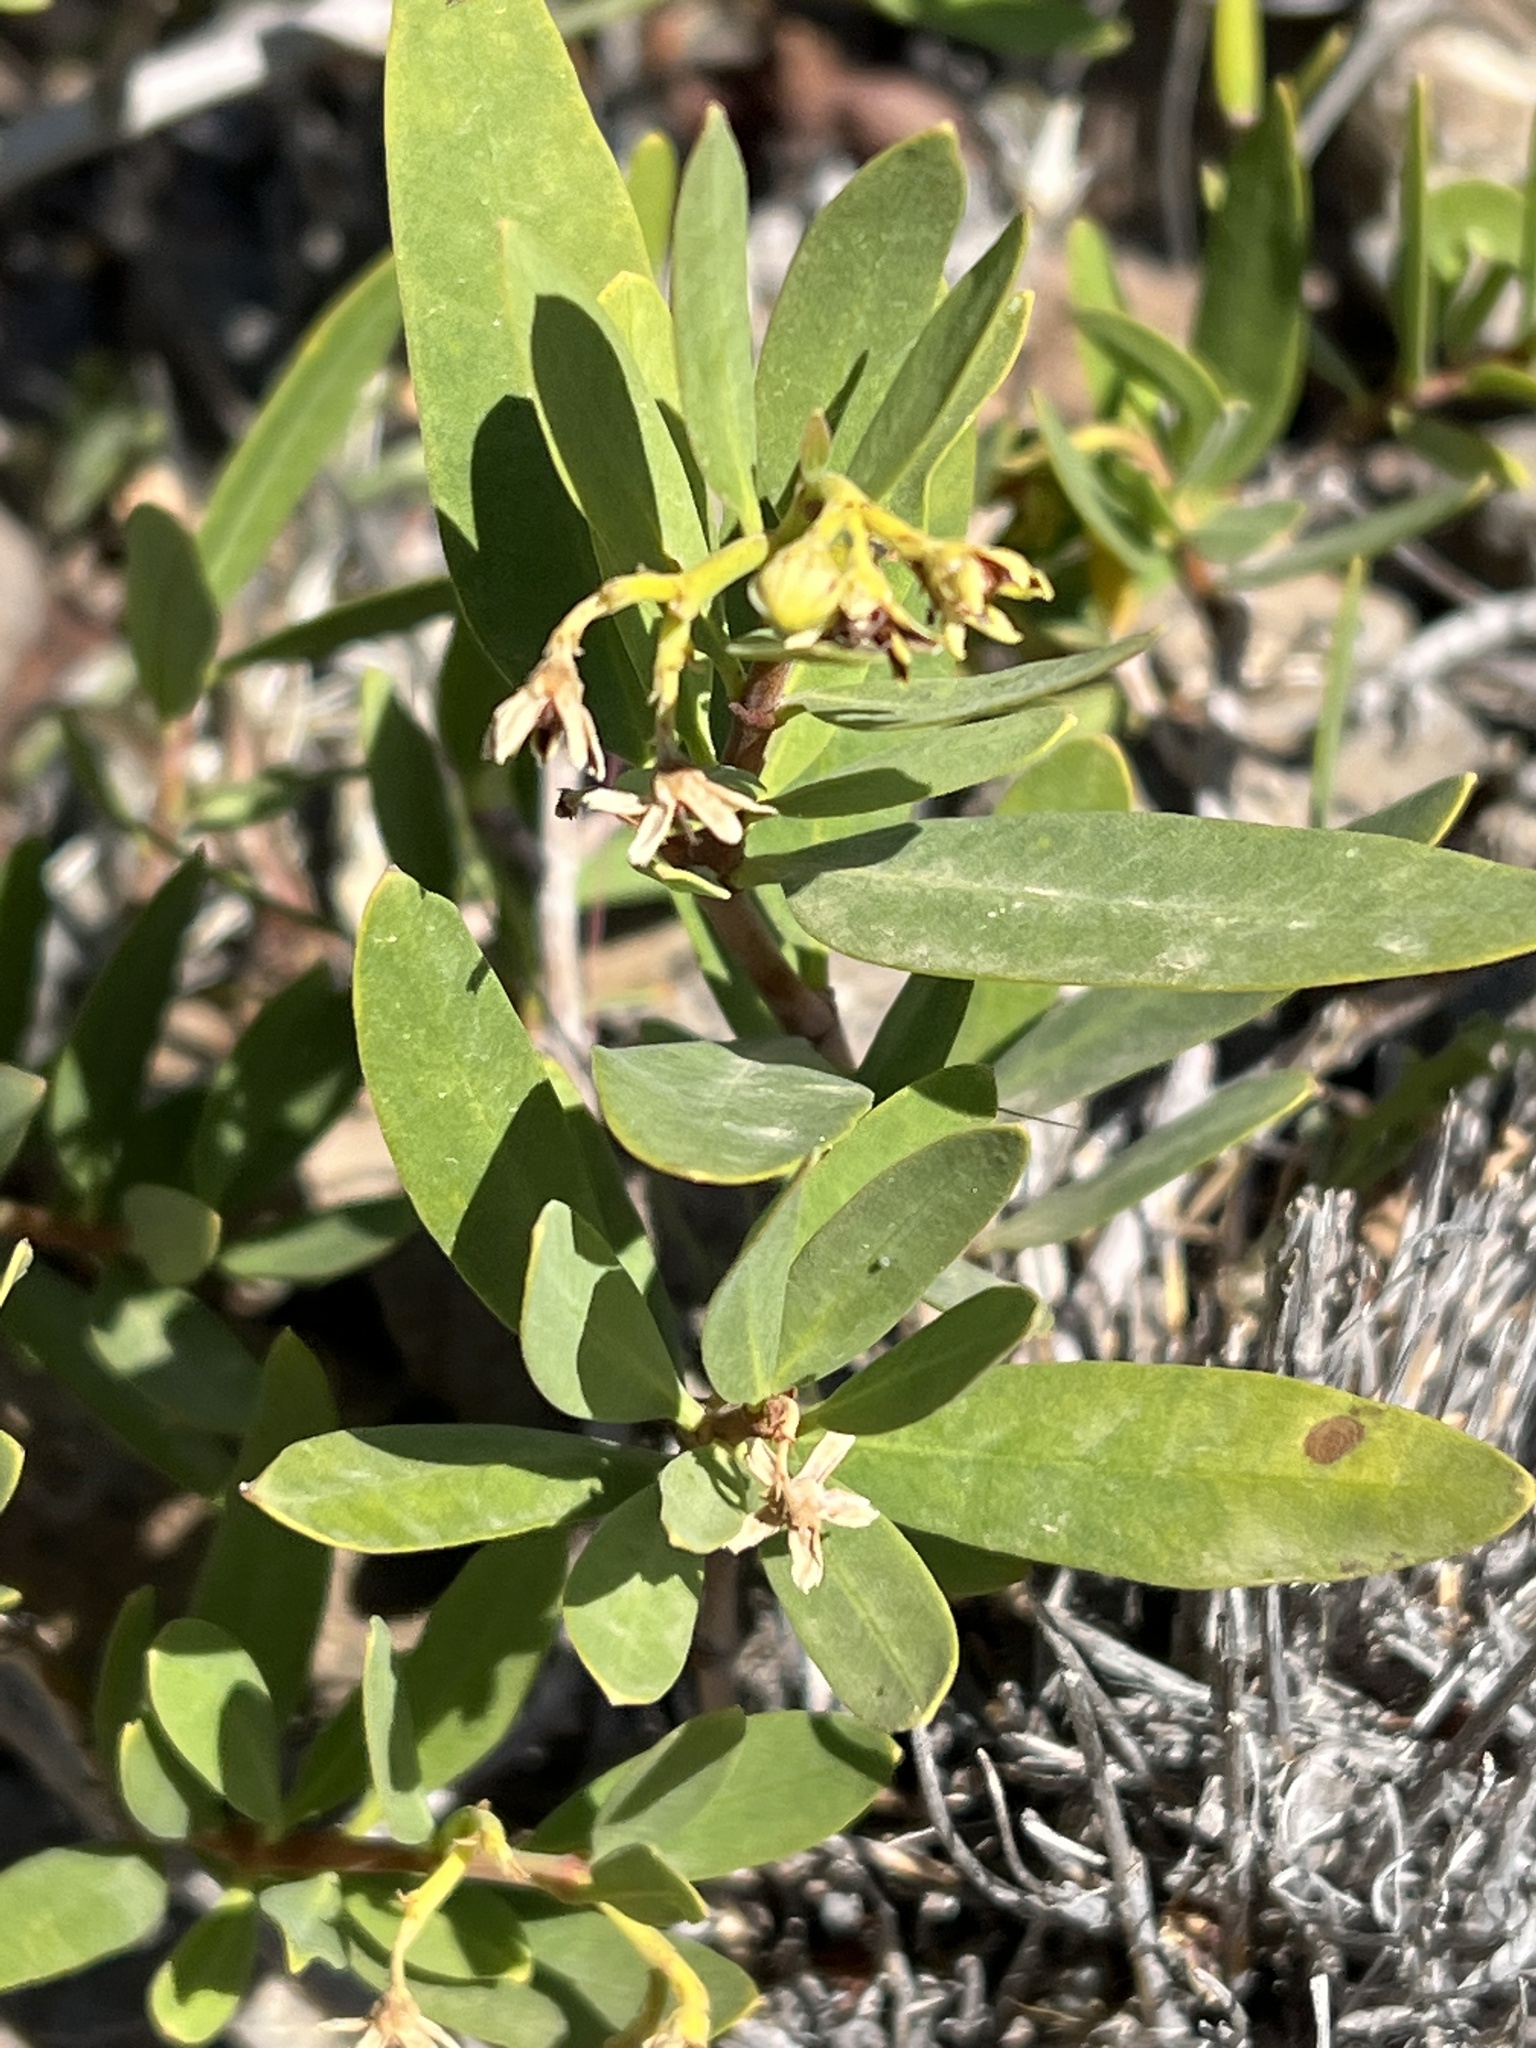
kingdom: Plantae
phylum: Tracheophyta
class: Magnoliopsida
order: Gentianales
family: Apocynaceae
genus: Periploca
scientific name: Periploca laevigata
